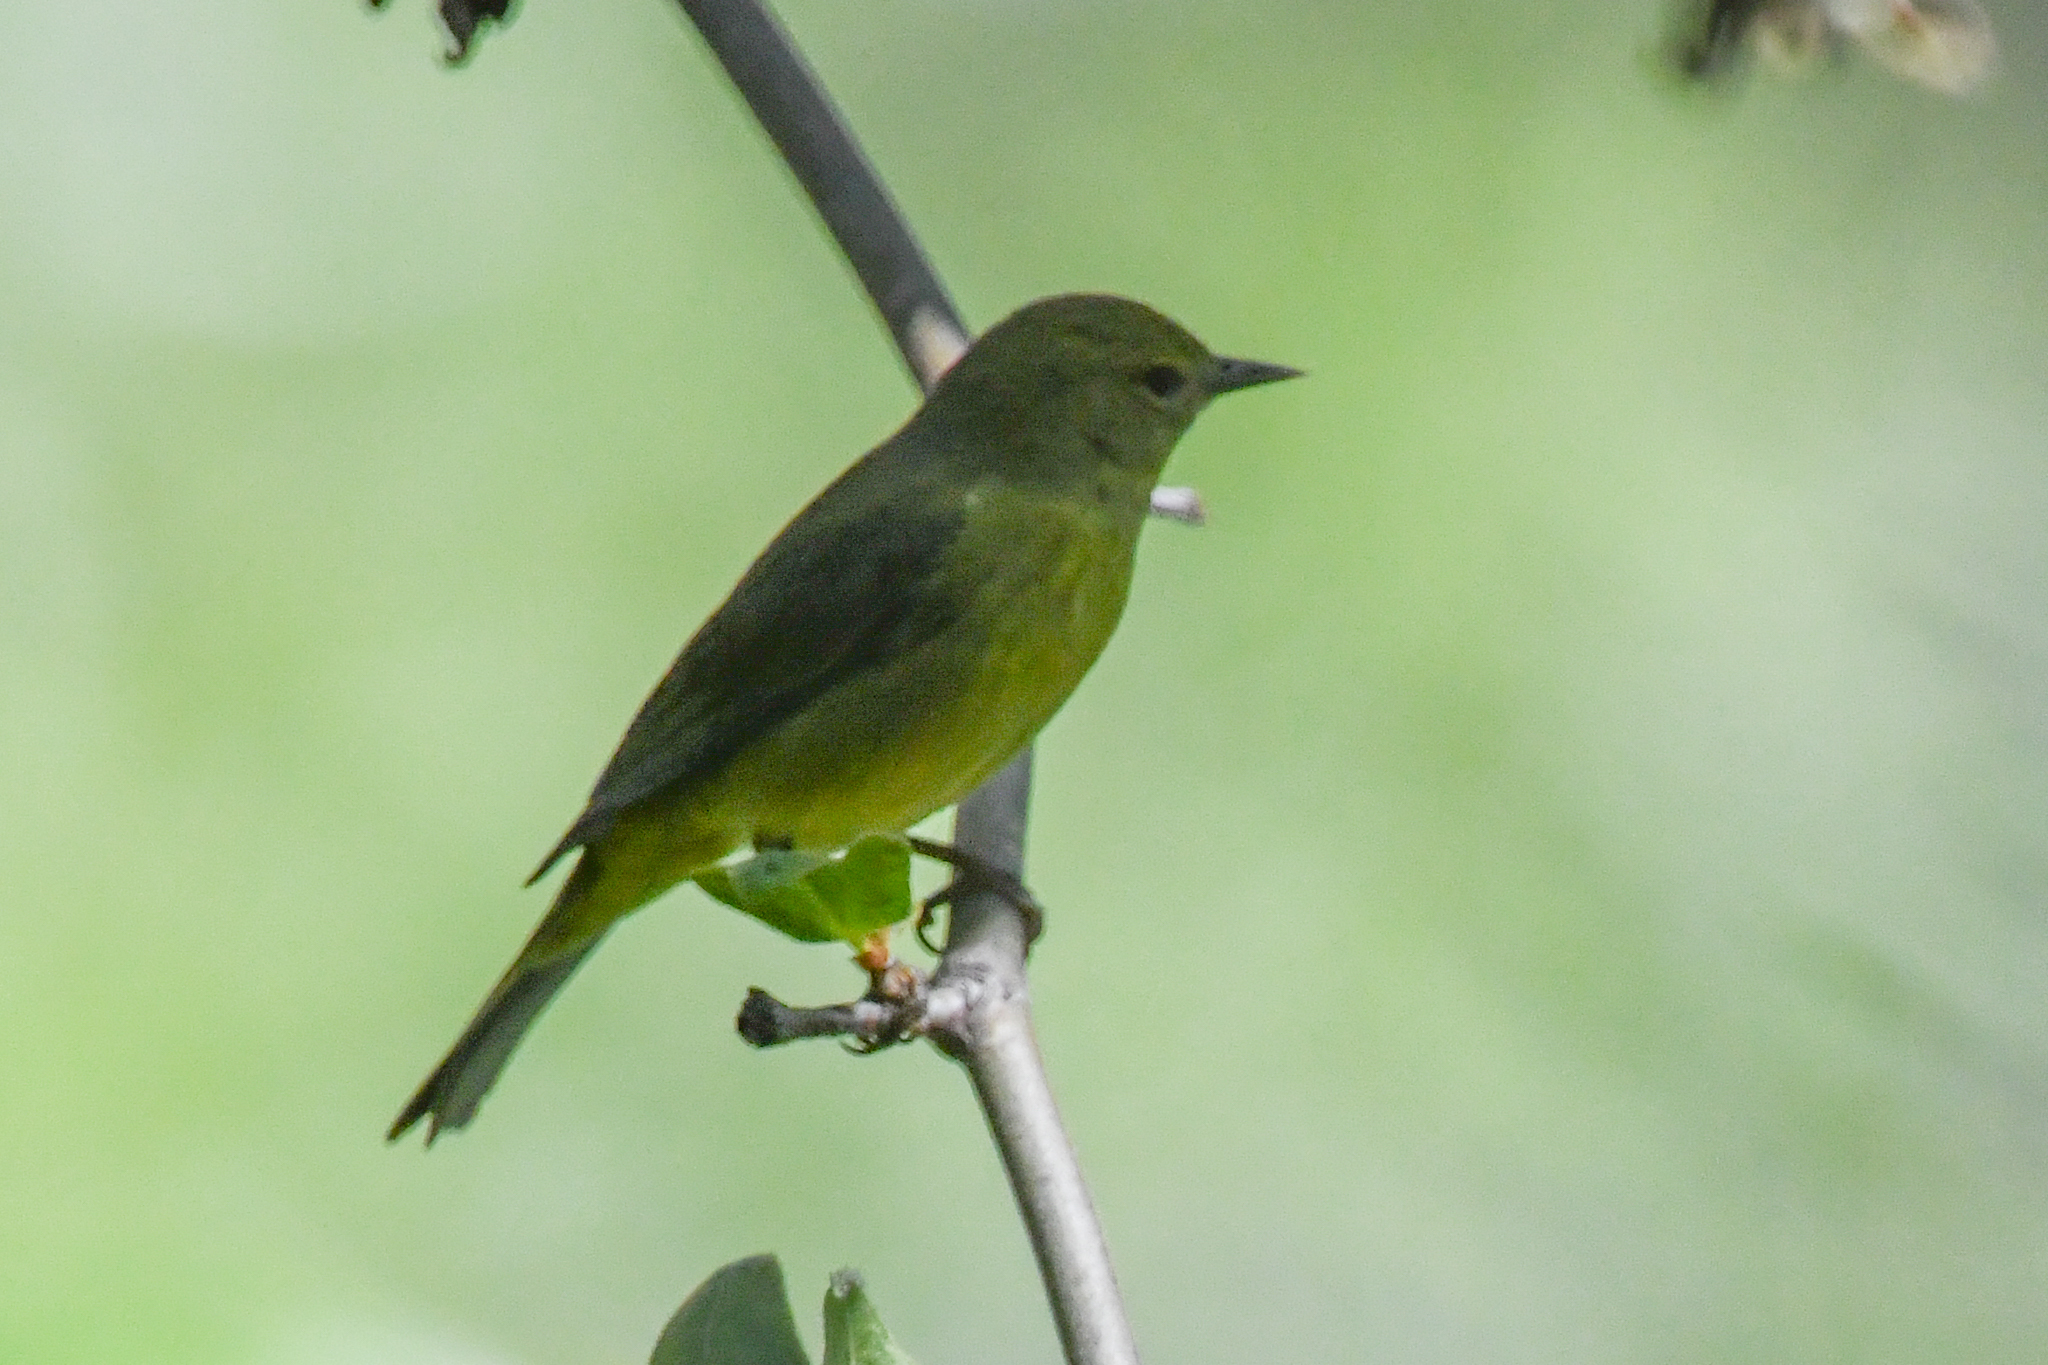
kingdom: Animalia
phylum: Chordata
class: Aves
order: Passeriformes
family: Parulidae
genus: Leiothlypis
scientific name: Leiothlypis celata
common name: Orange-crowned warbler
